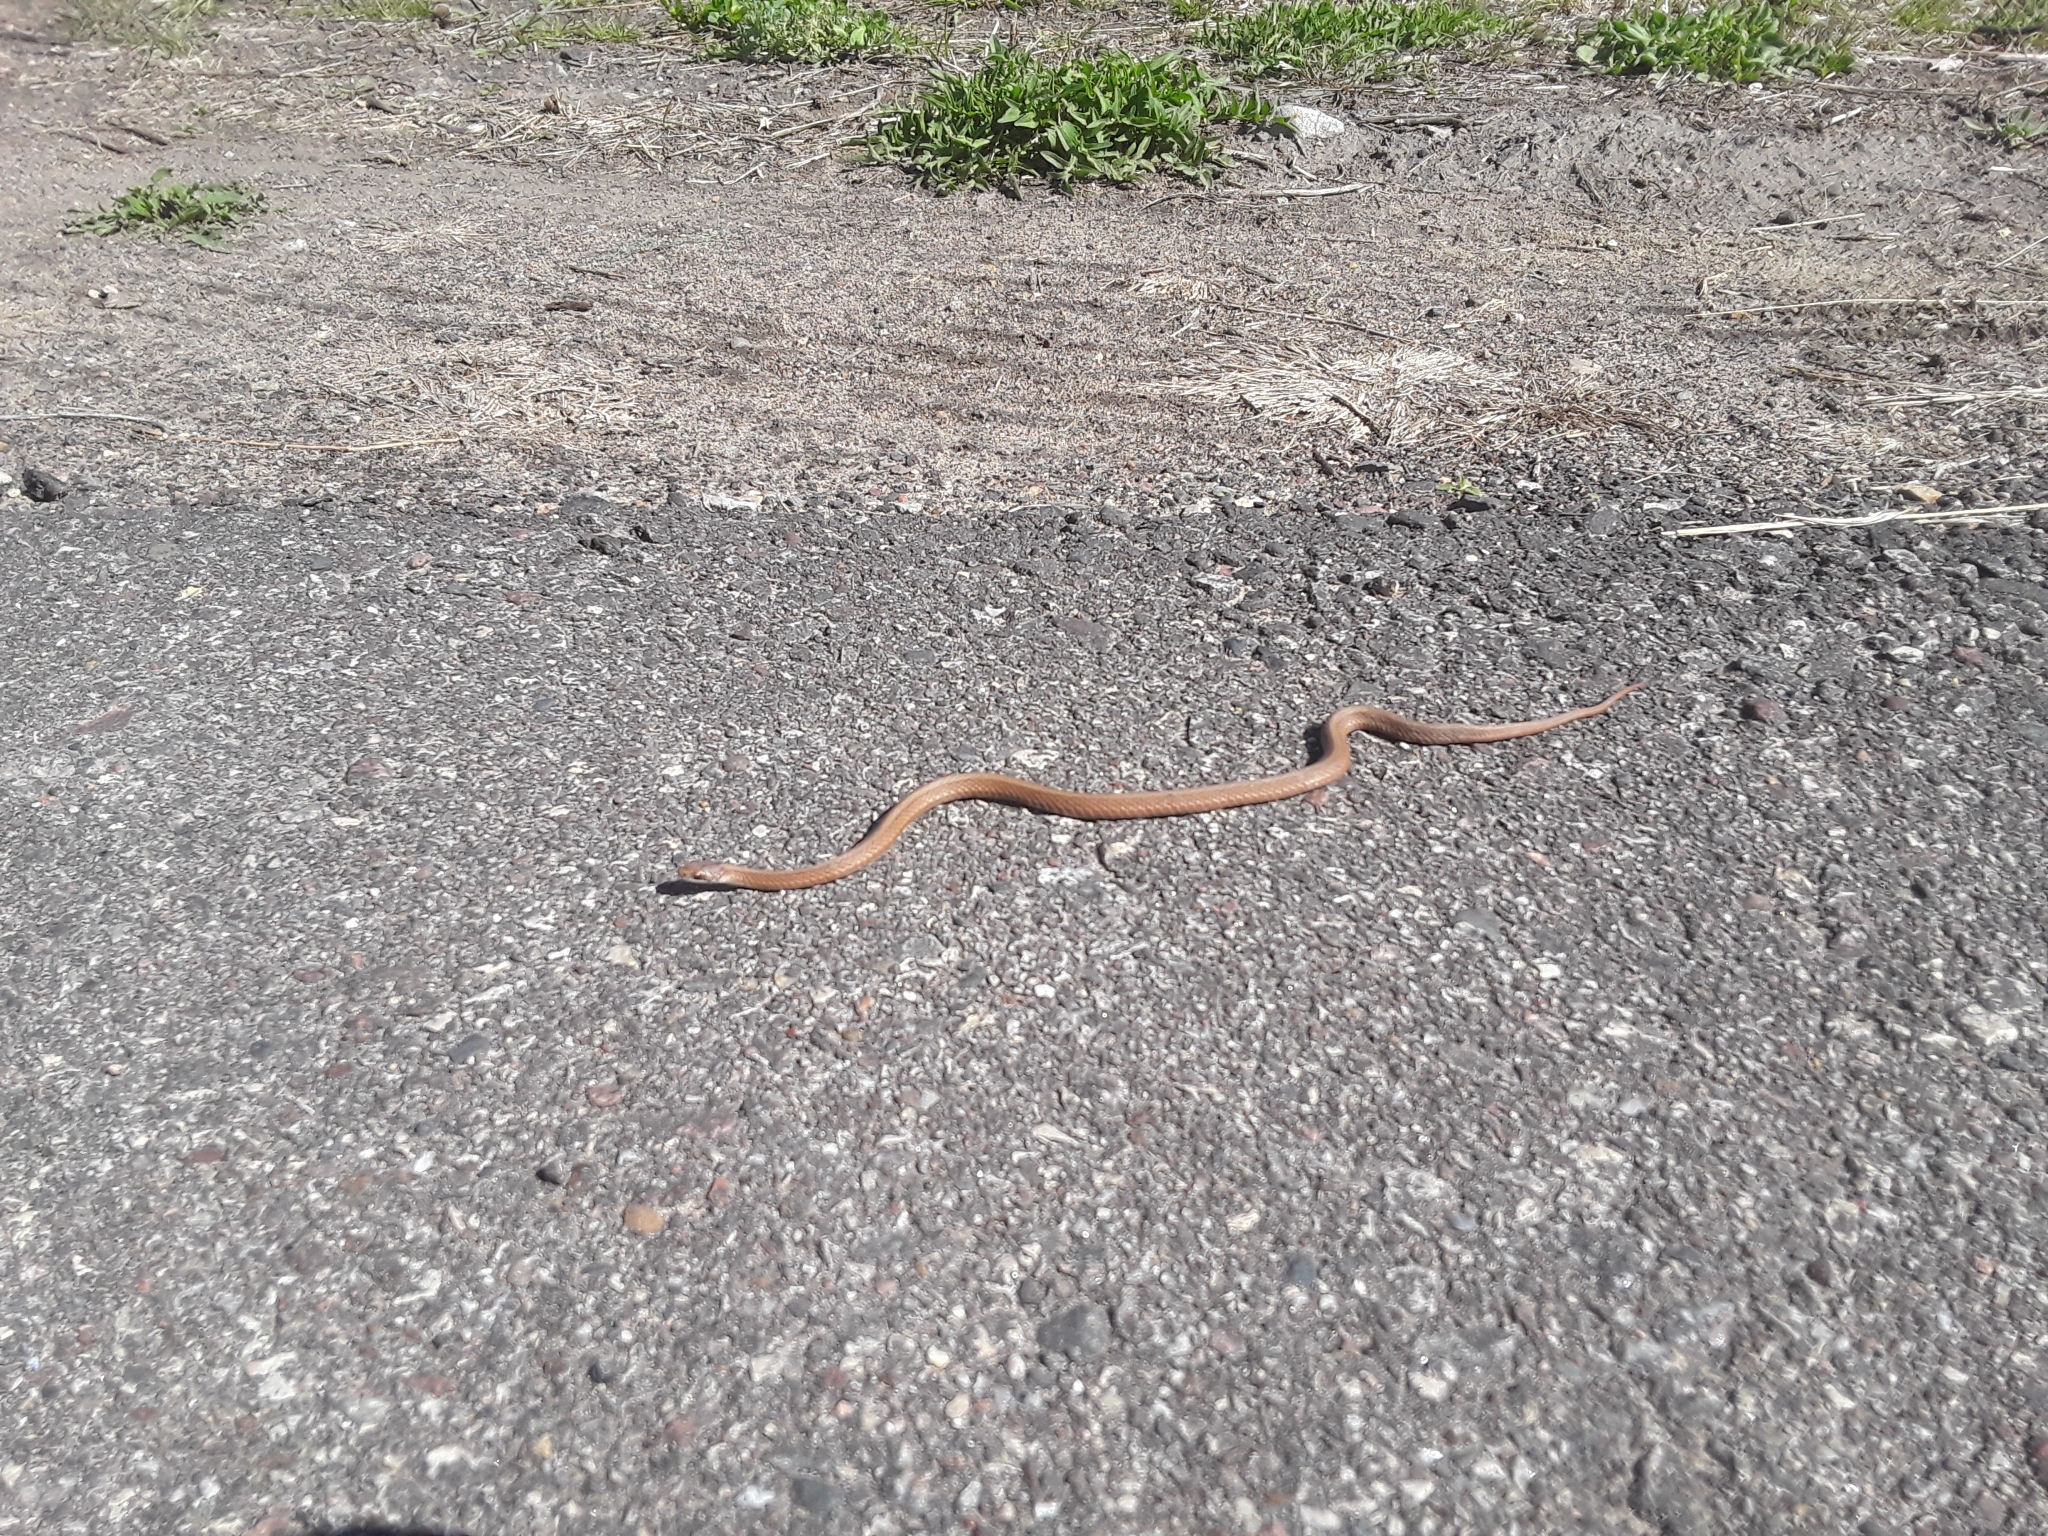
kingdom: Animalia
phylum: Chordata
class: Squamata
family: Colubridae
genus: Storeria
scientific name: Storeria occipitomaculata
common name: Redbelly snake
